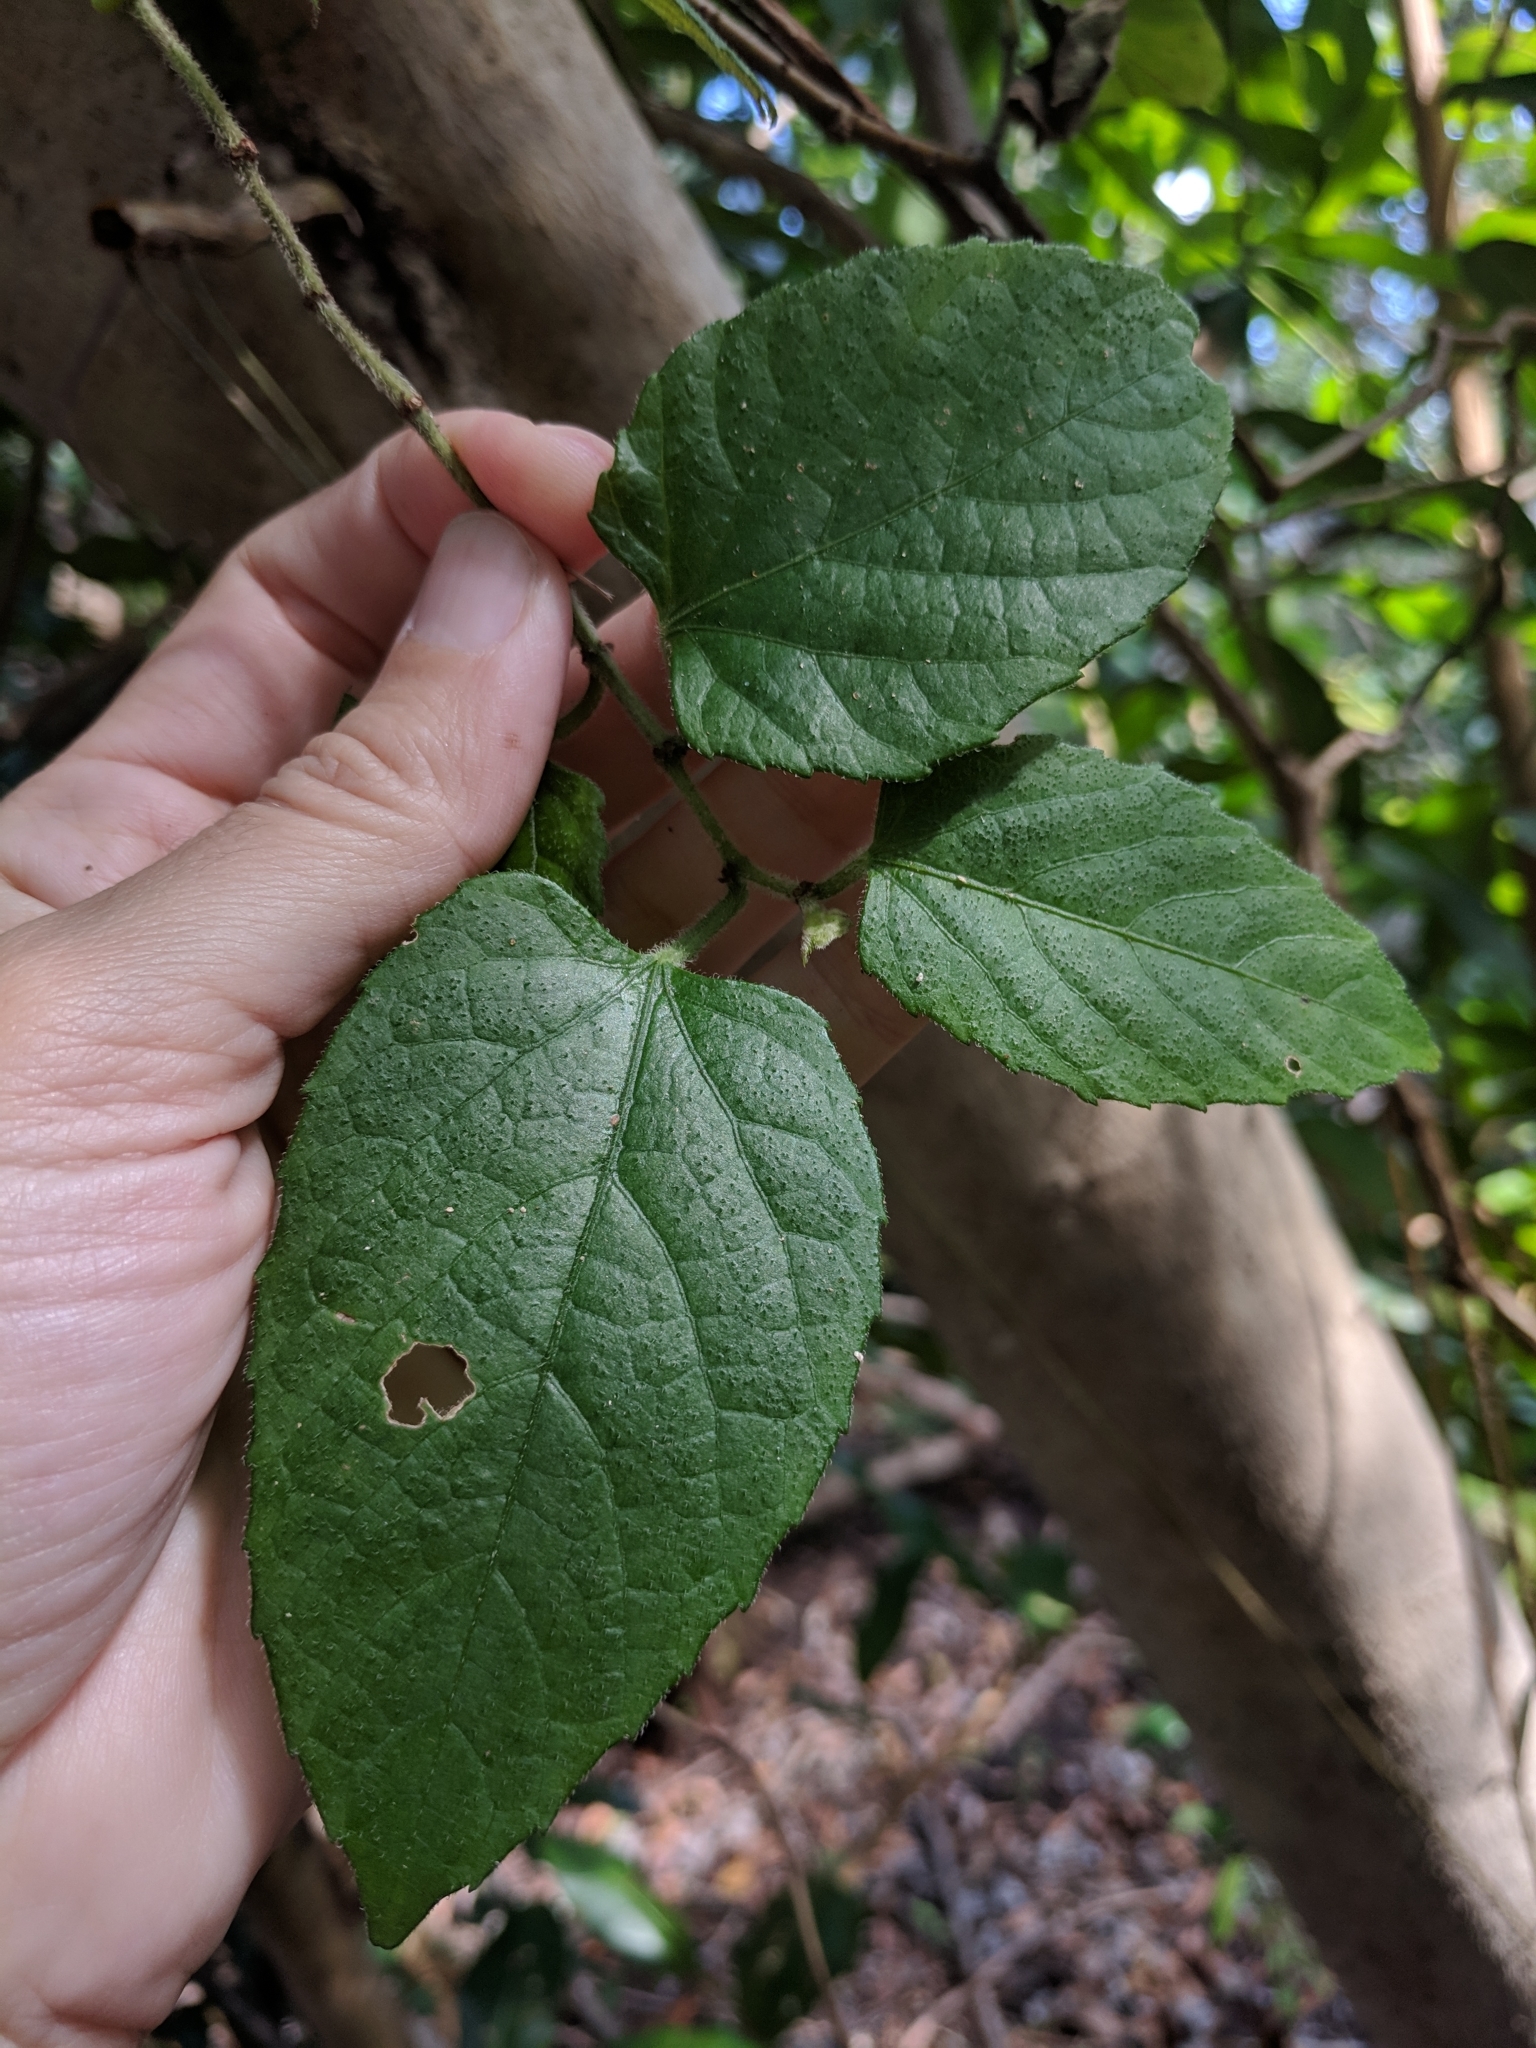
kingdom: Plantae
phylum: Tracheophyta
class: Magnoliopsida
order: Vitales
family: Vitaceae
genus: Cissus
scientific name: Cissus verticillata
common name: Princess vine
